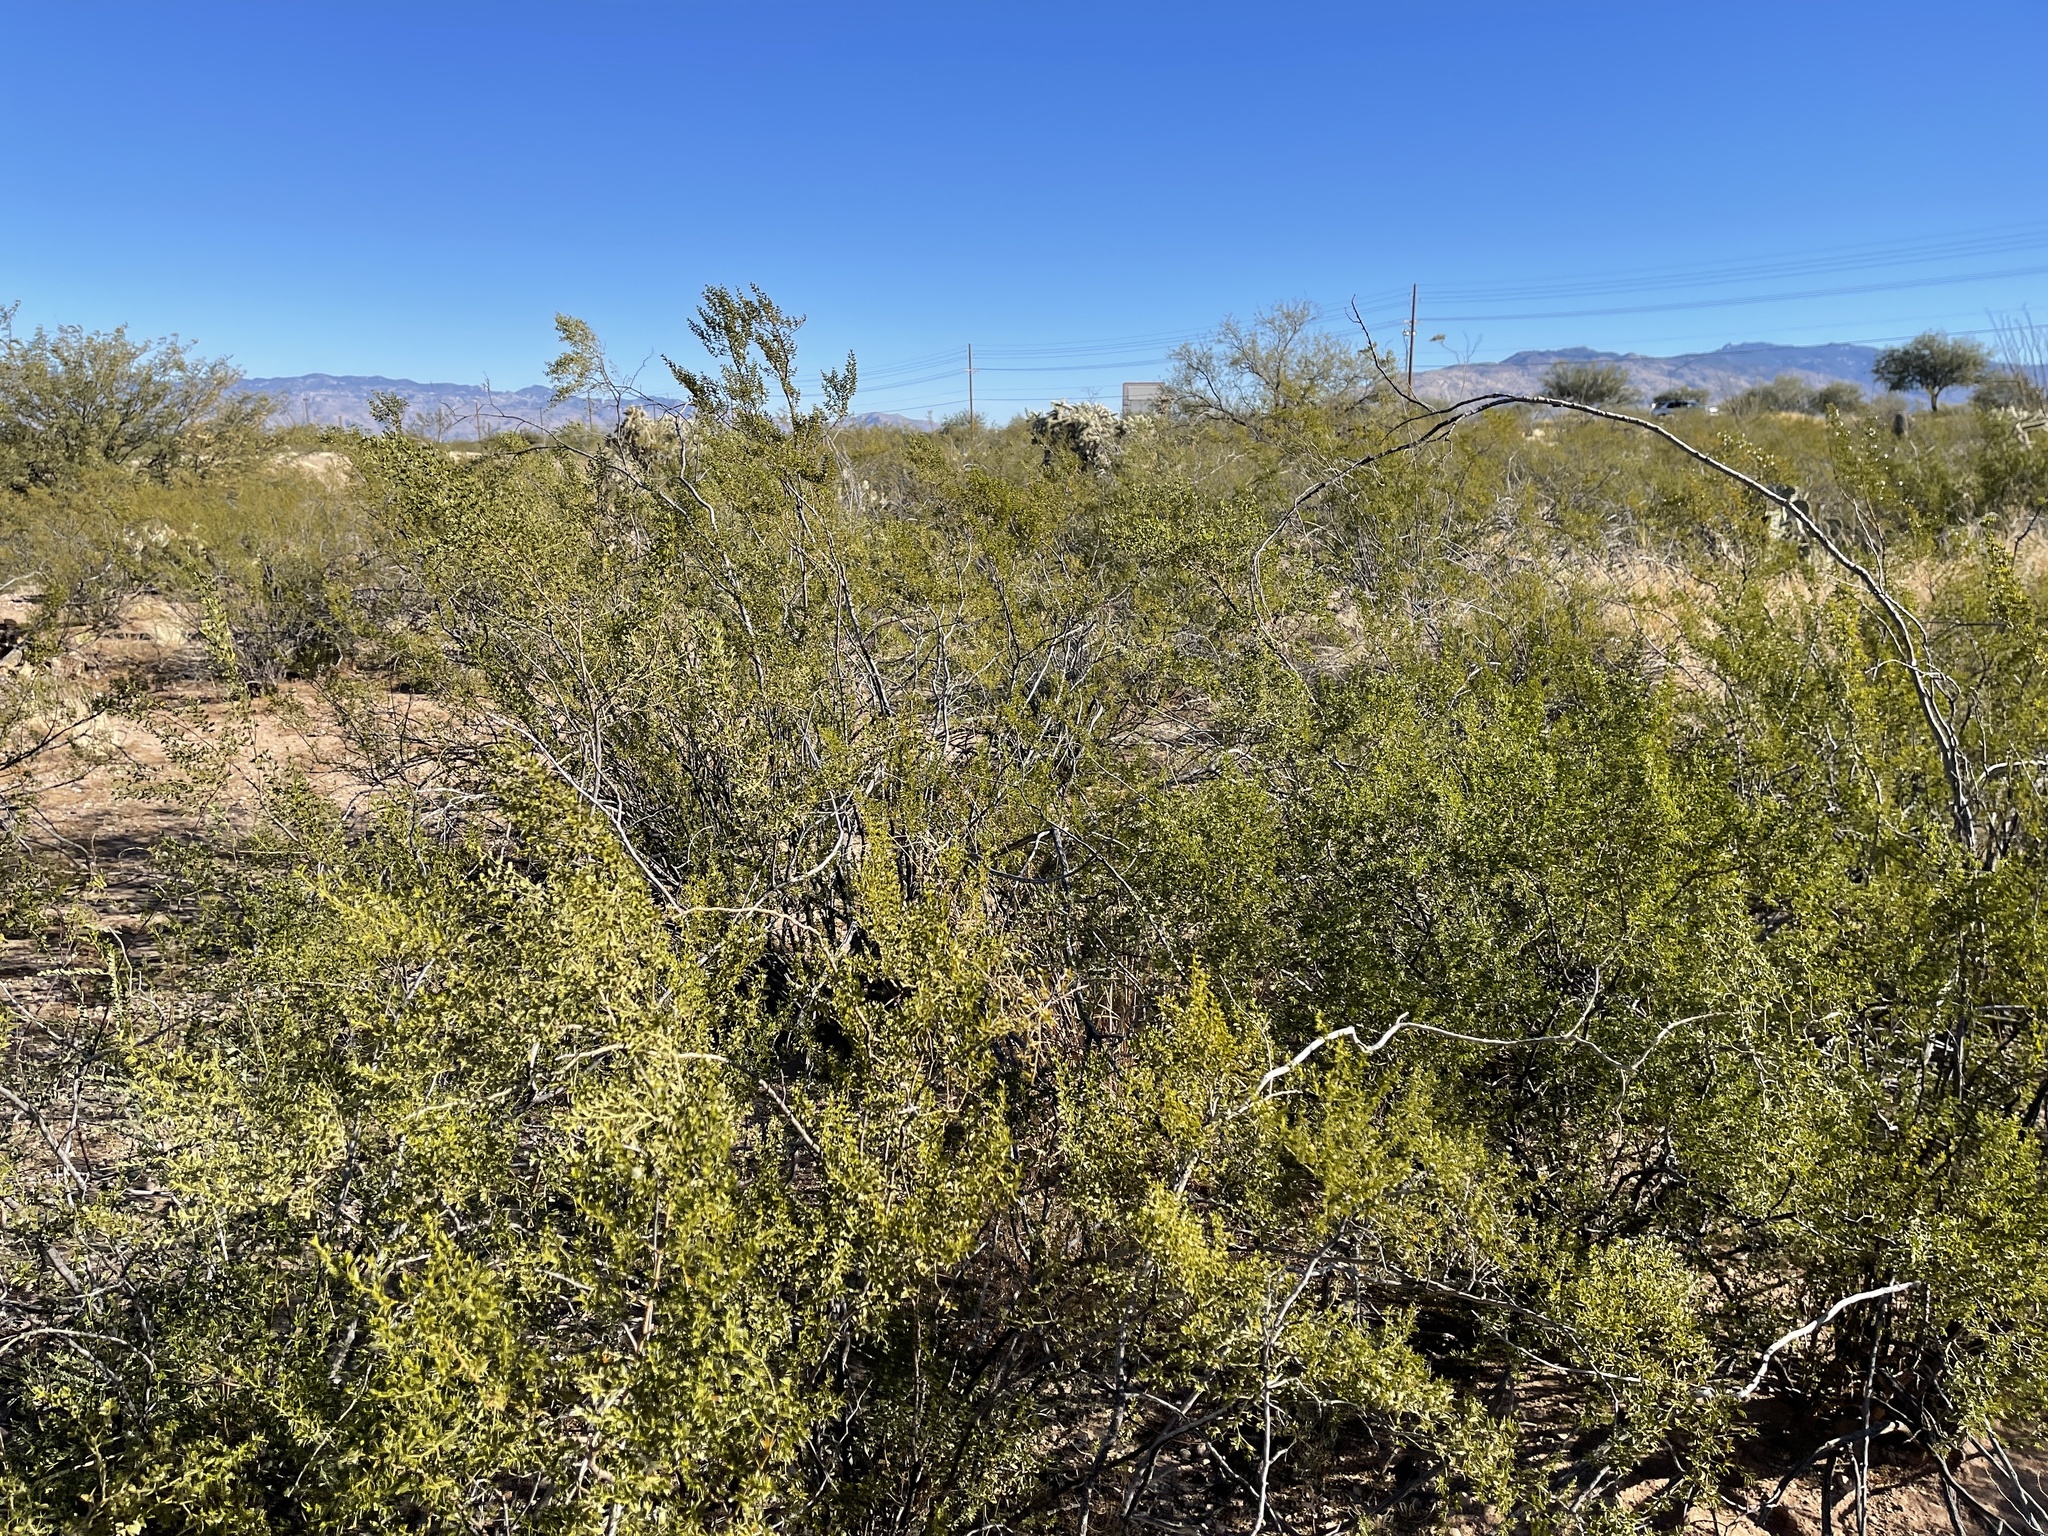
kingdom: Plantae
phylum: Tracheophyta
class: Magnoliopsida
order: Zygophyllales
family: Zygophyllaceae
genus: Larrea
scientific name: Larrea tridentata
